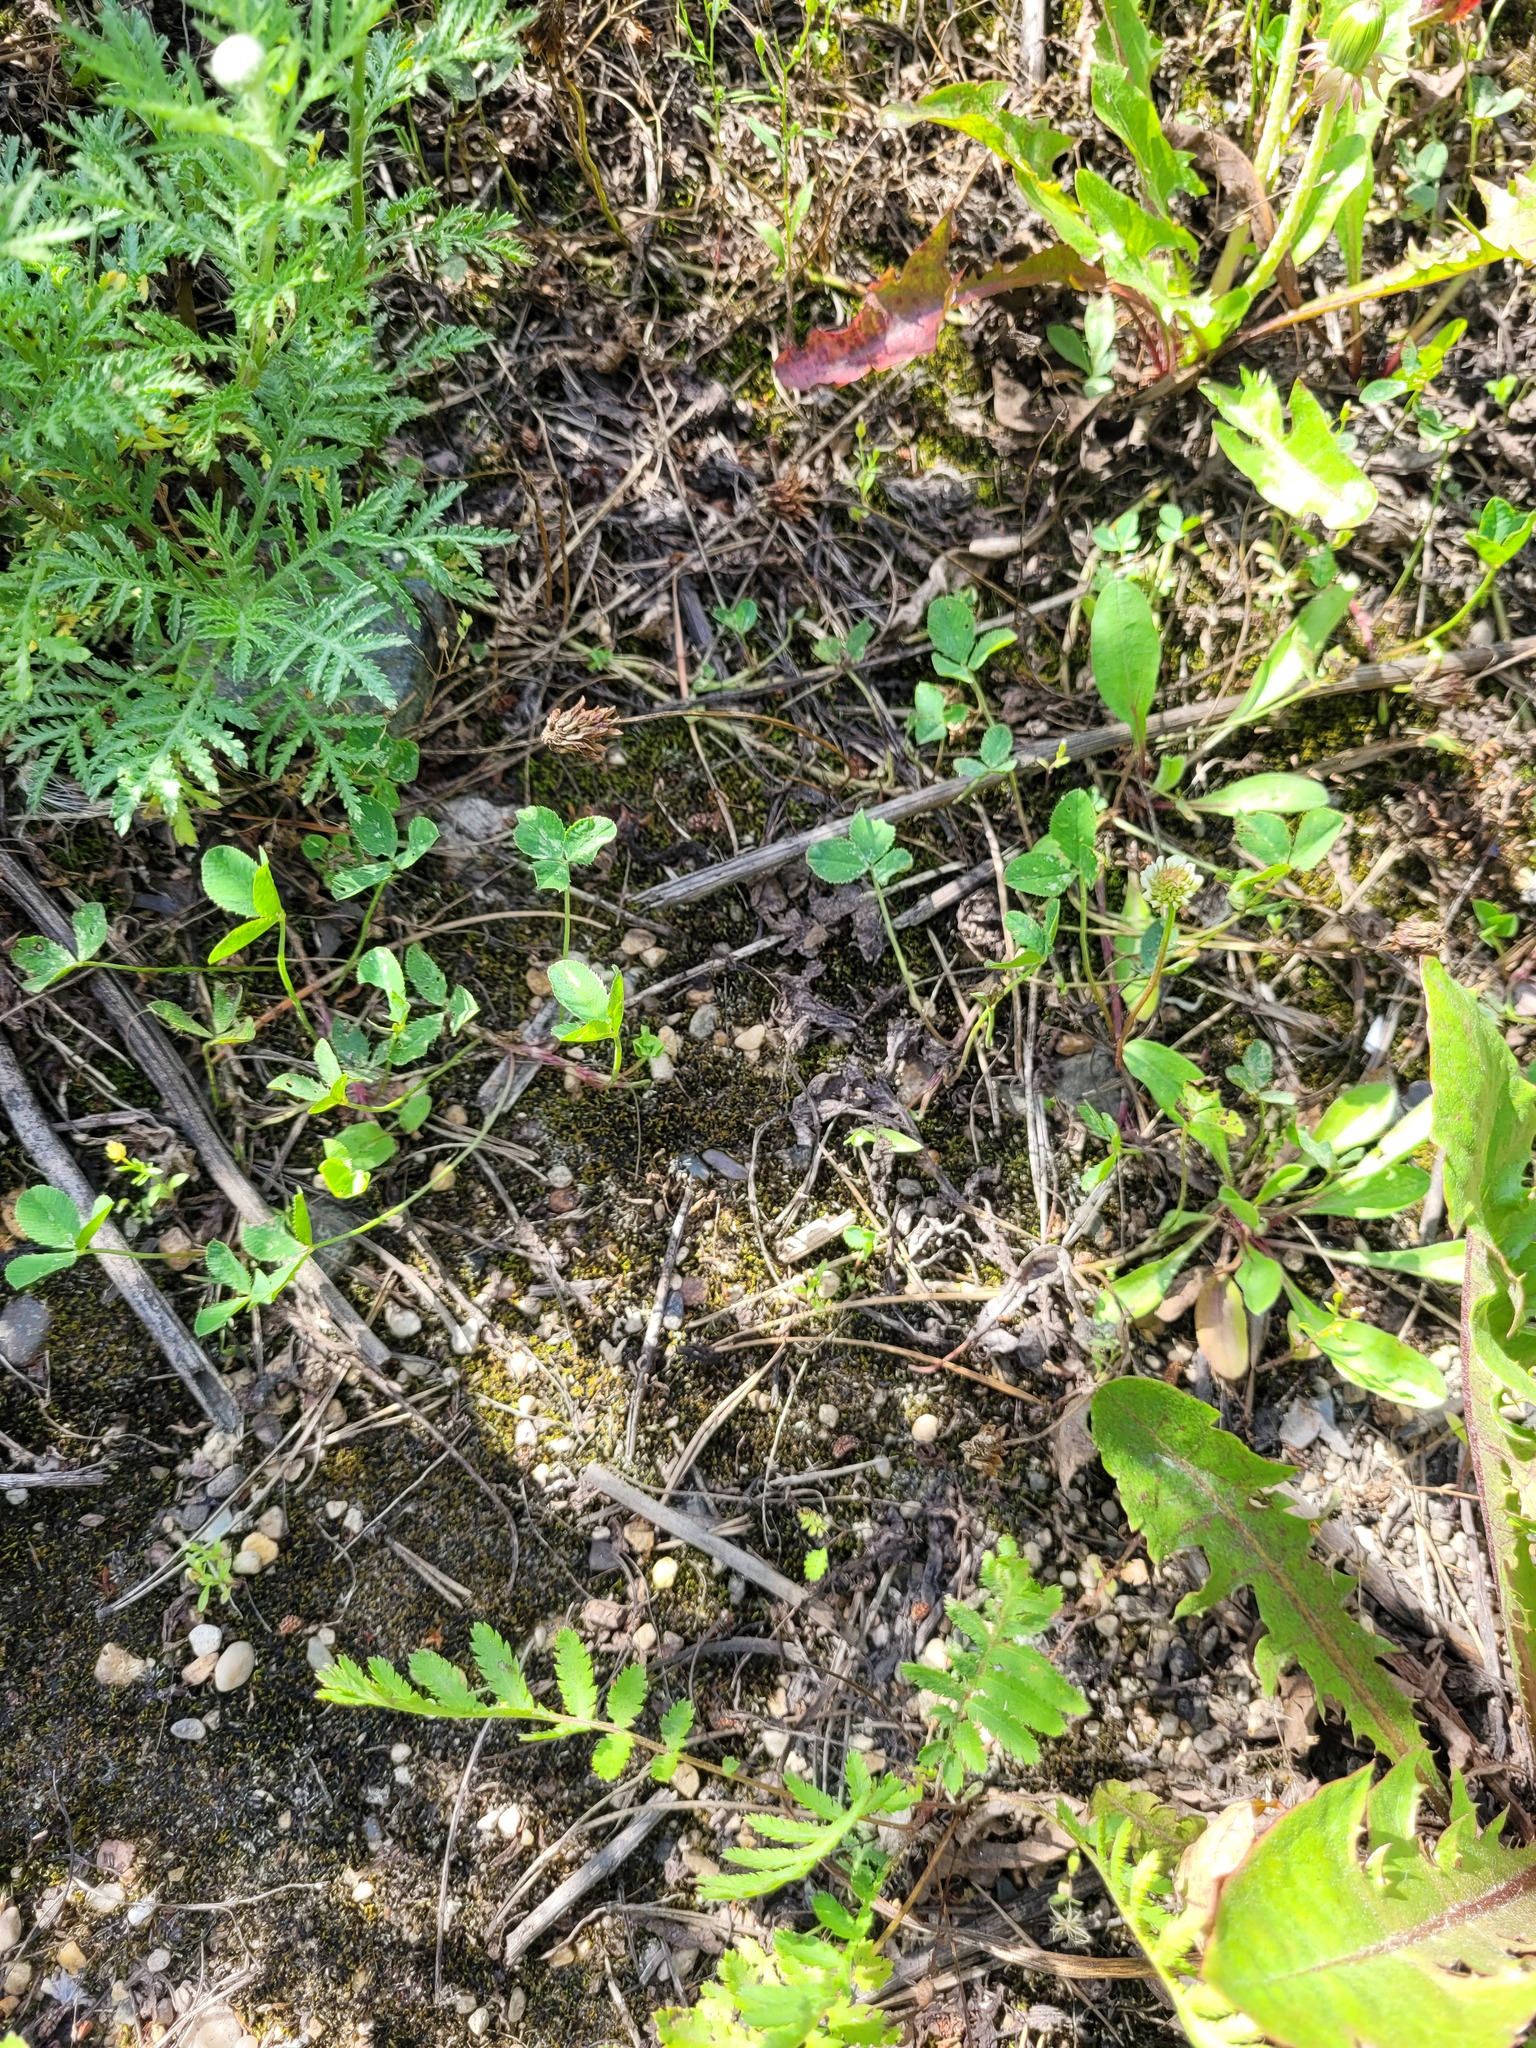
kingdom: Plantae
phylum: Tracheophyta
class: Magnoliopsida
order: Fabales
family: Fabaceae
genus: Trifolium
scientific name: Trifolium repens
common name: White clover
